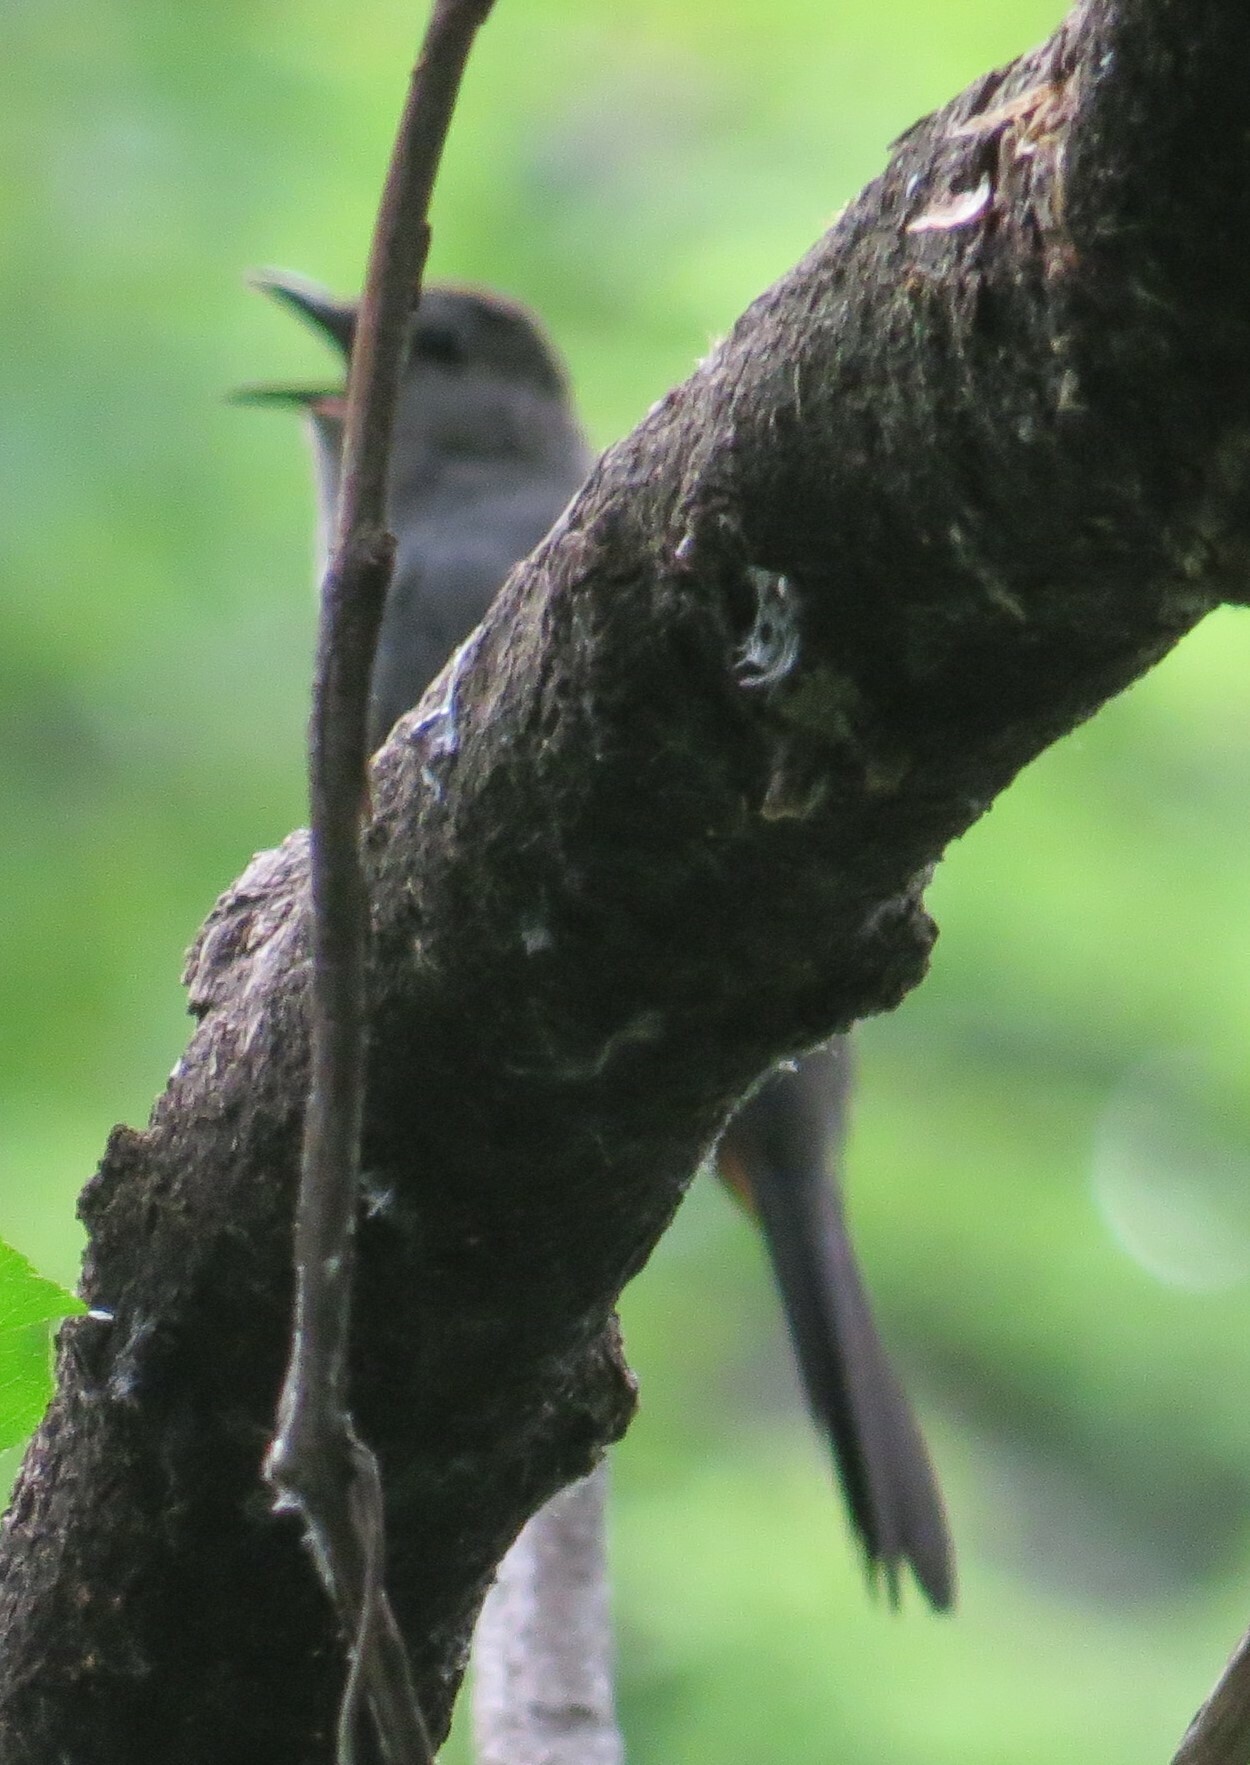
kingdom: Animalia
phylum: Chordata
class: Aves
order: Passeriformes
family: Mimidae
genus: Dumetella
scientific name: Dumetella carolinensis
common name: Gray catbird
